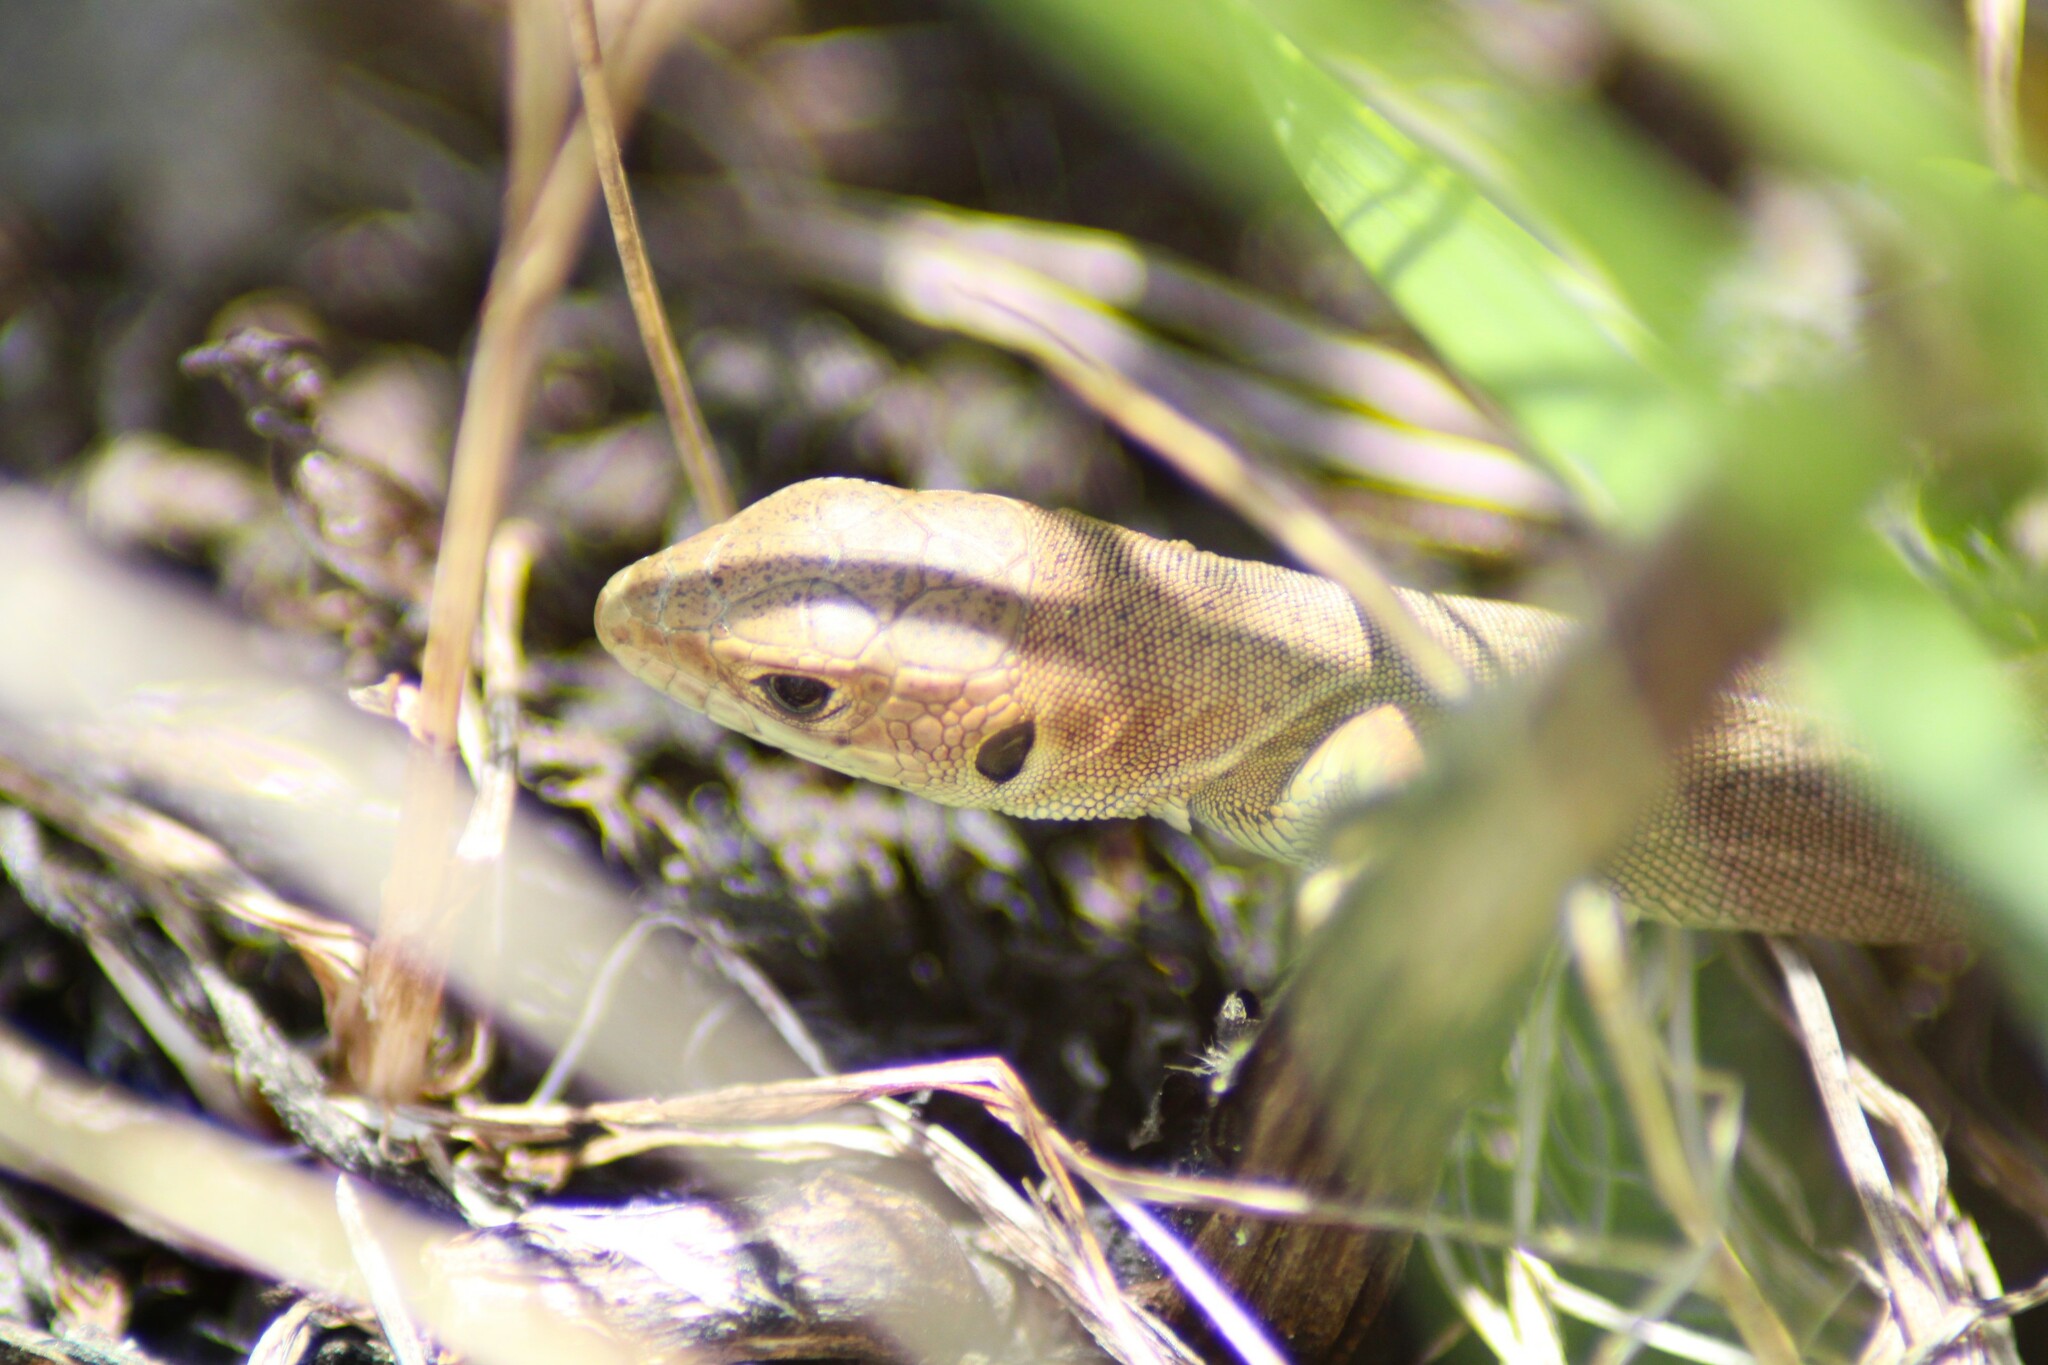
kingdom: Animalia
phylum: Chordata
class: Squamata
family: Lacertidae
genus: Lacerta
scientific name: Lacerta viridis
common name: European green lizard
